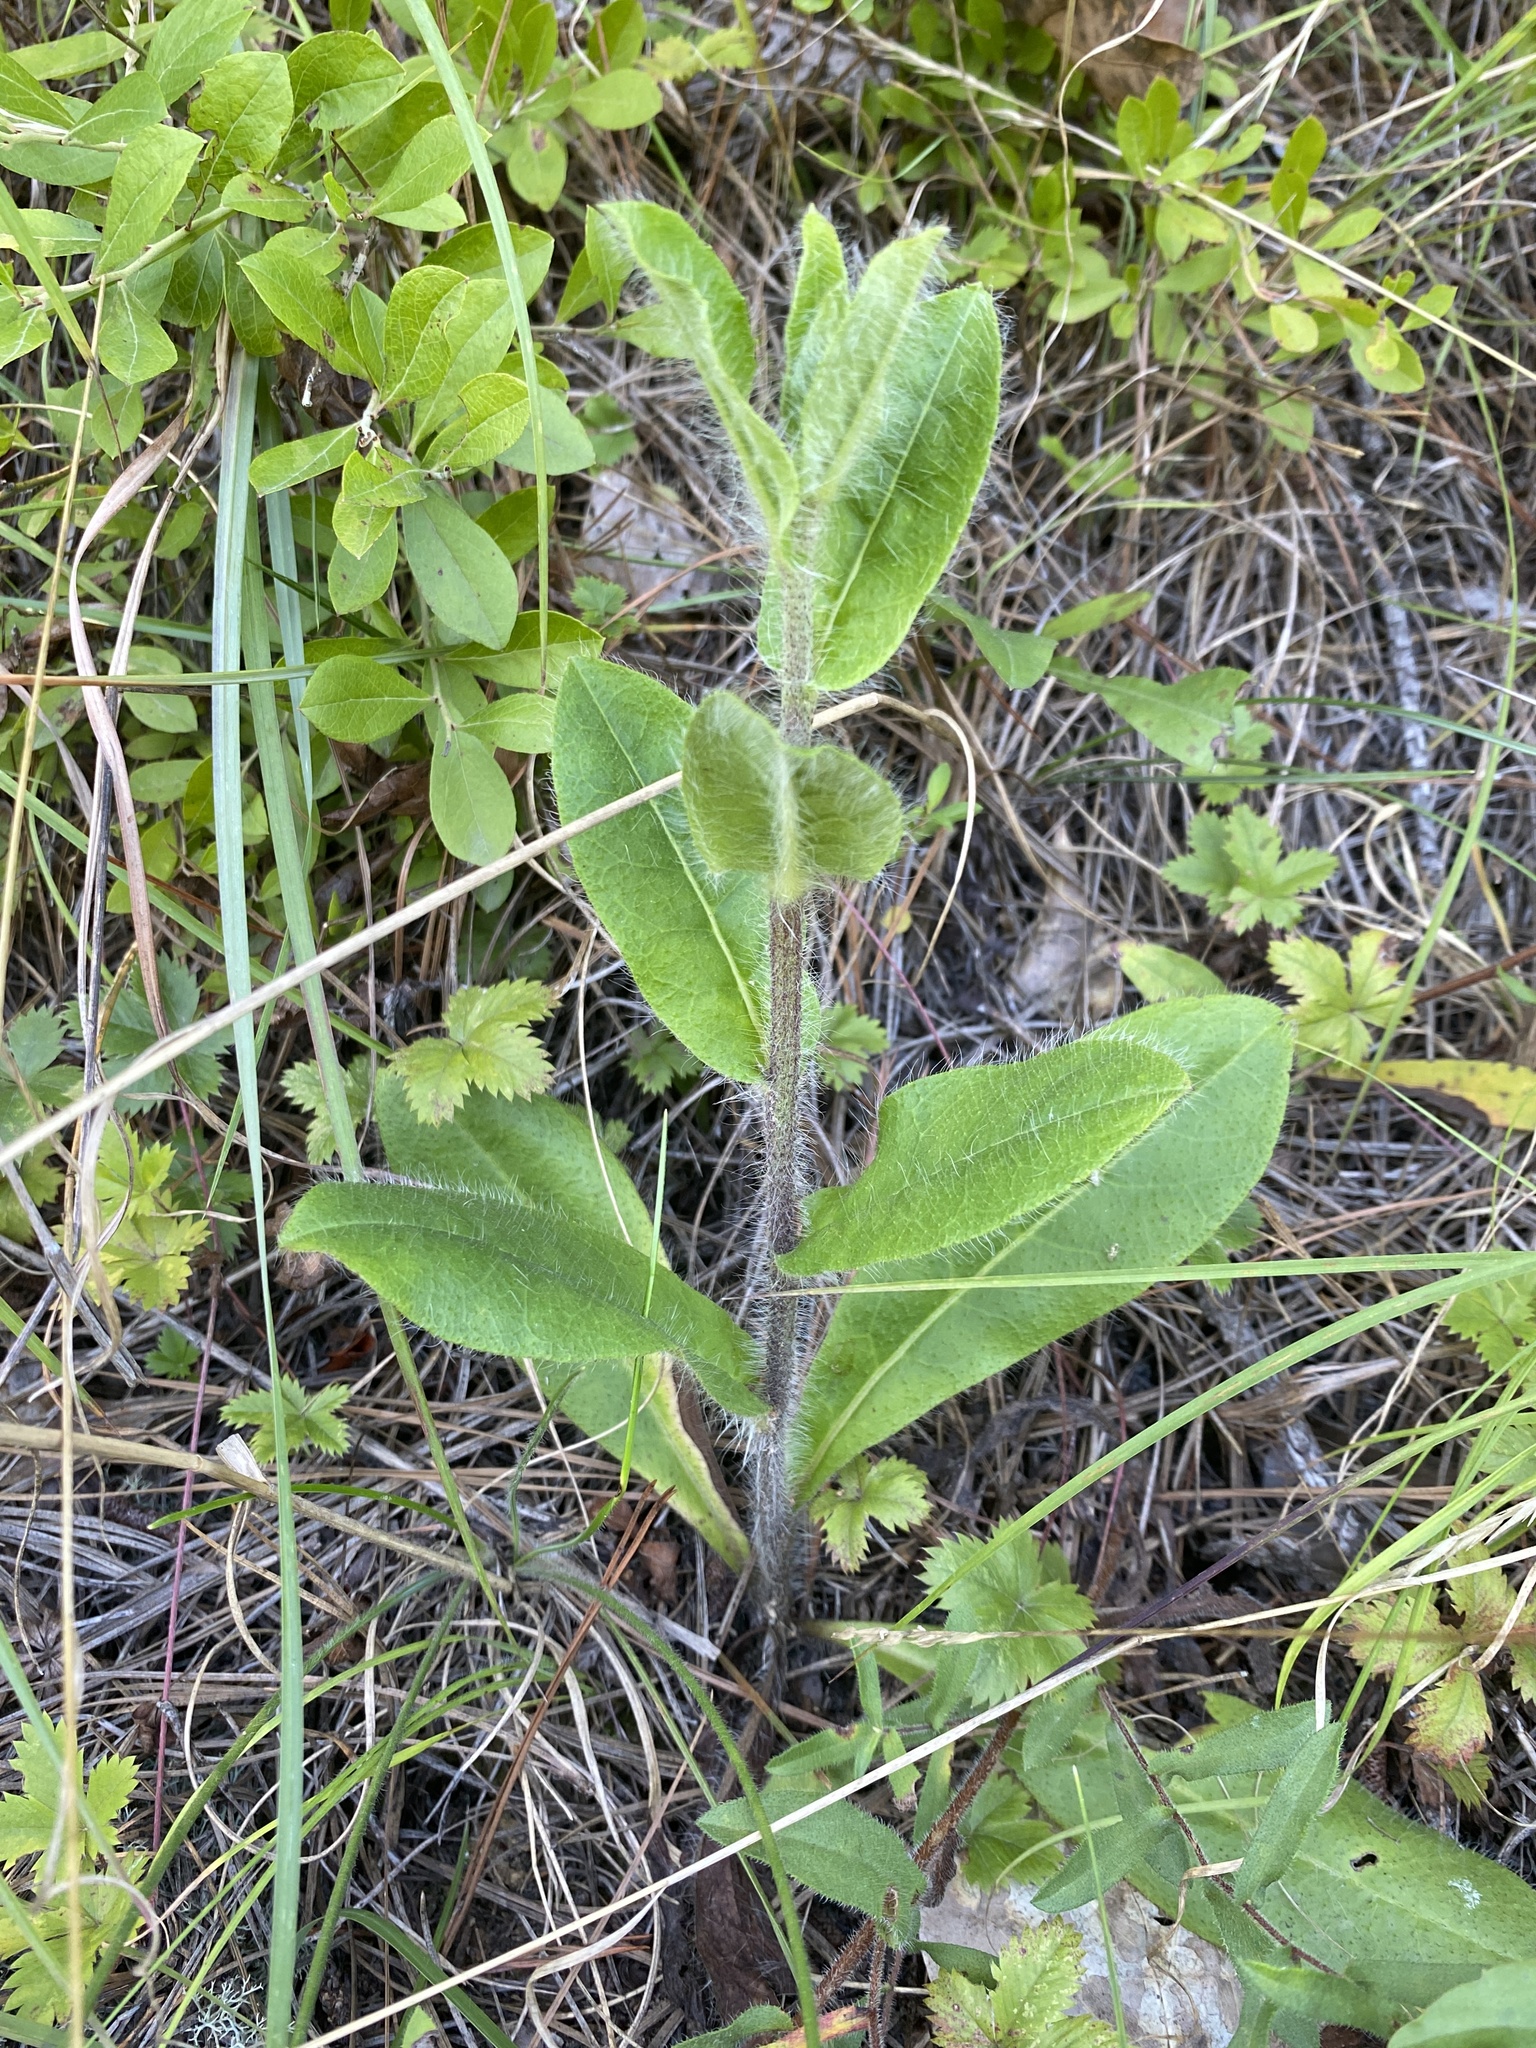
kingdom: Plantae
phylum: Tracheophyta
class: Magnoliopsida
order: Asterales
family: Asteraceae
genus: Hieracium
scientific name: Hieracium gronovii
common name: Beaked hawkweed
